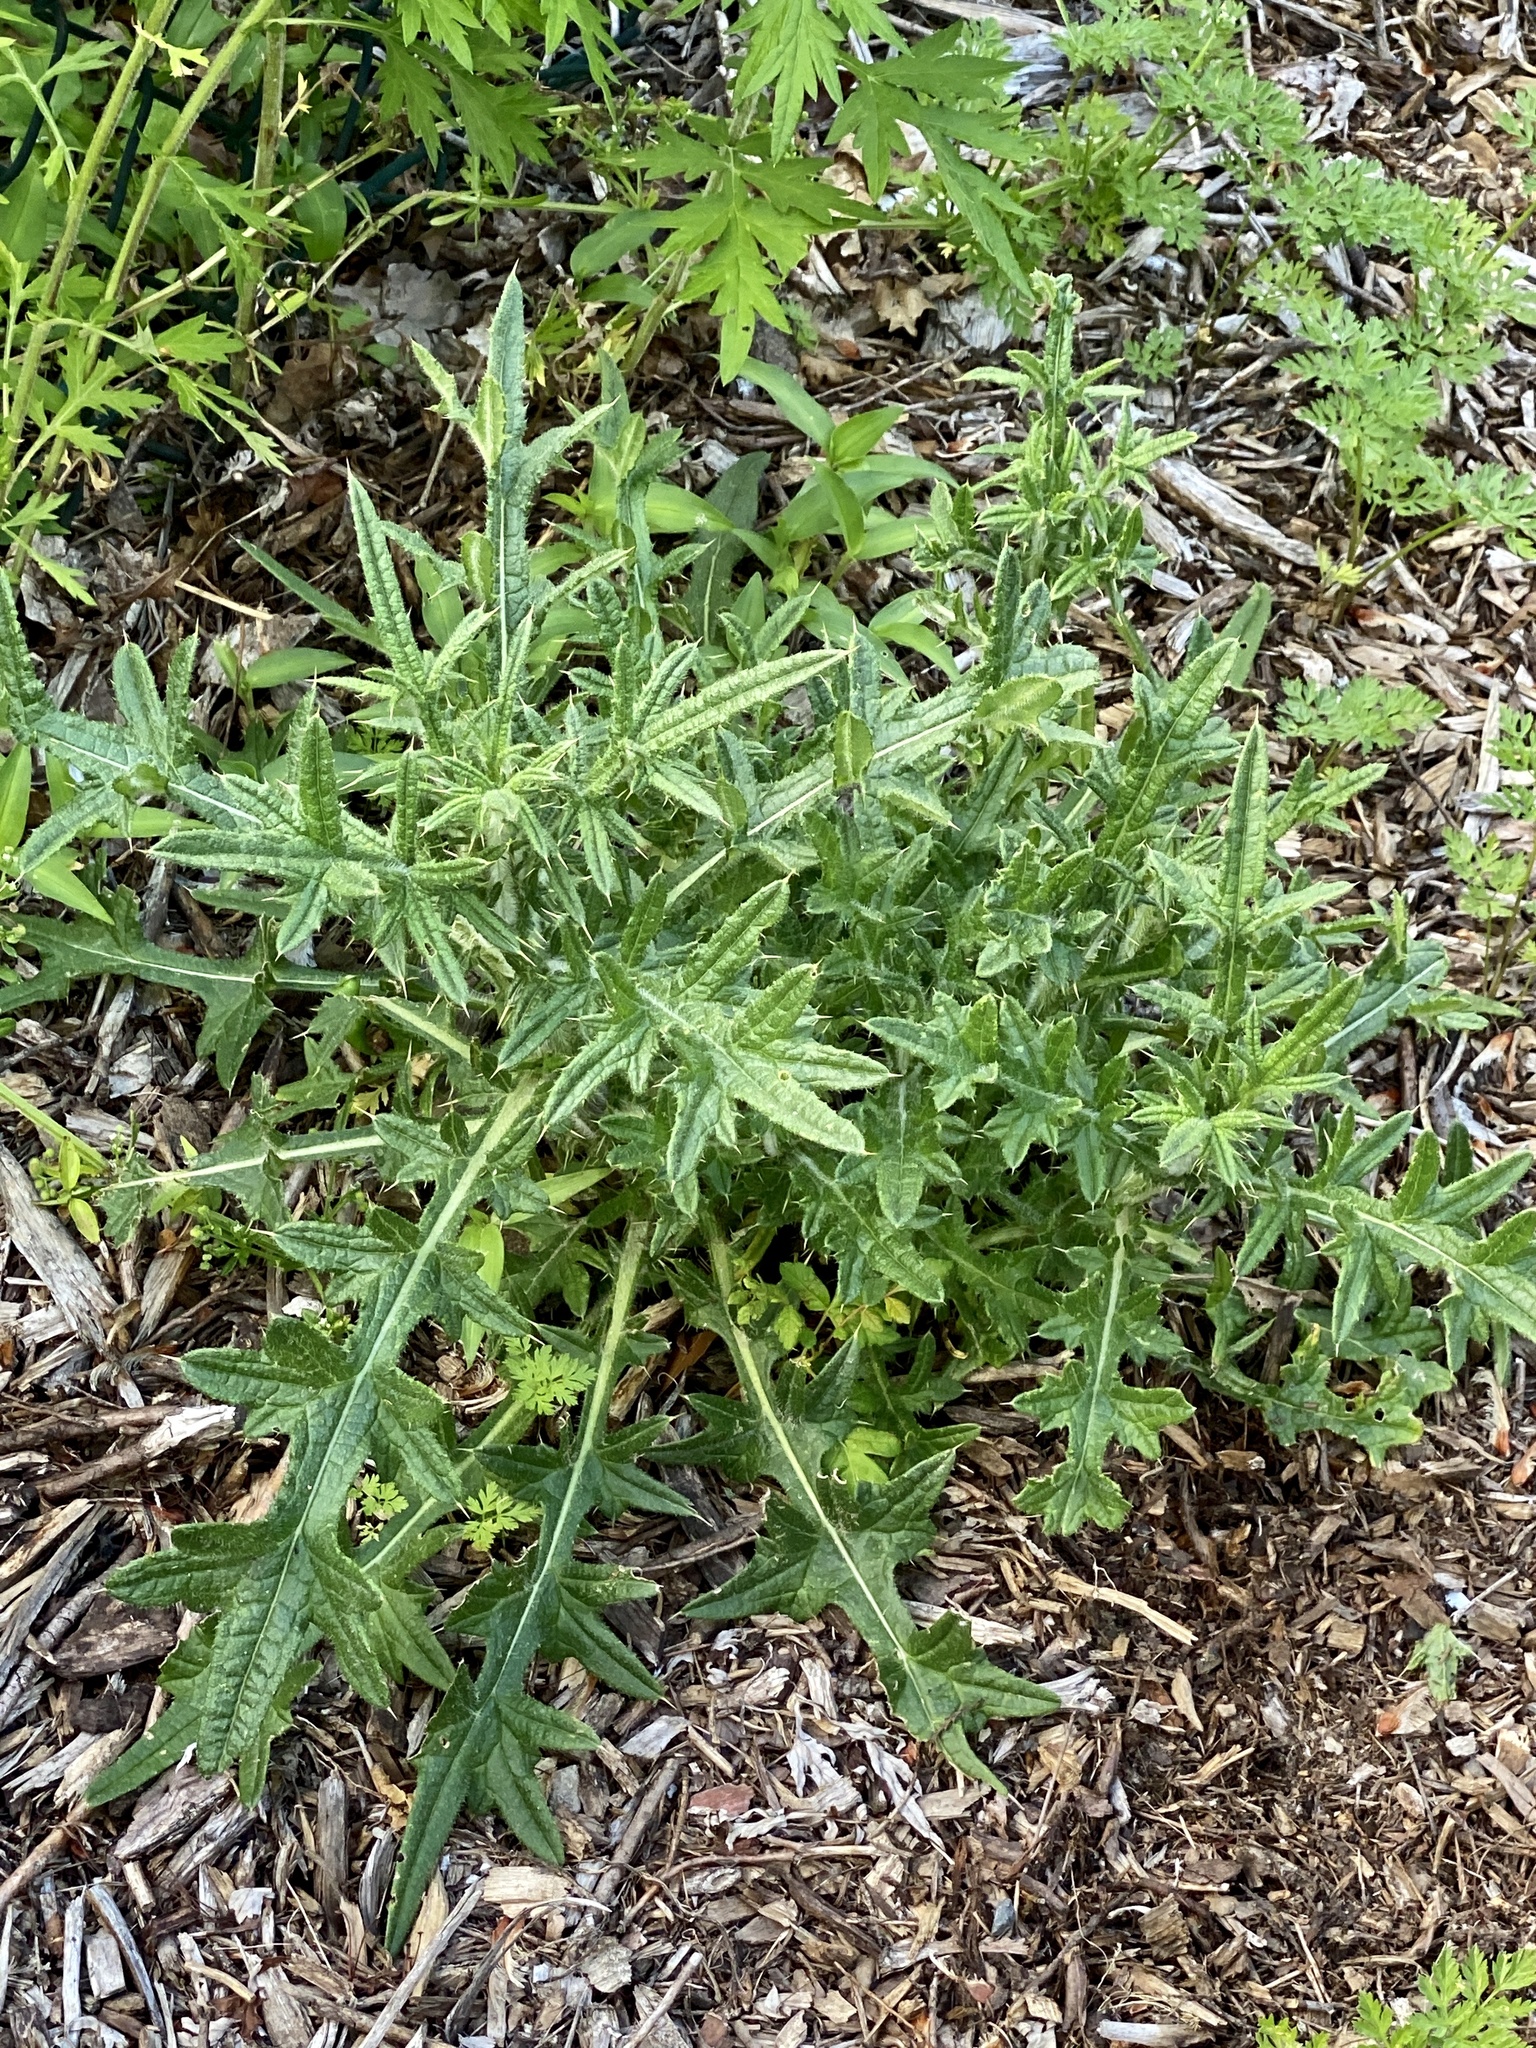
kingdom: Plantae
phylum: Tracheophyta
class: Magnoliopsida
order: Asterales
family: Asteraceae
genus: Cirsium
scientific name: Cirsium vulgare
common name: Bull thistle
